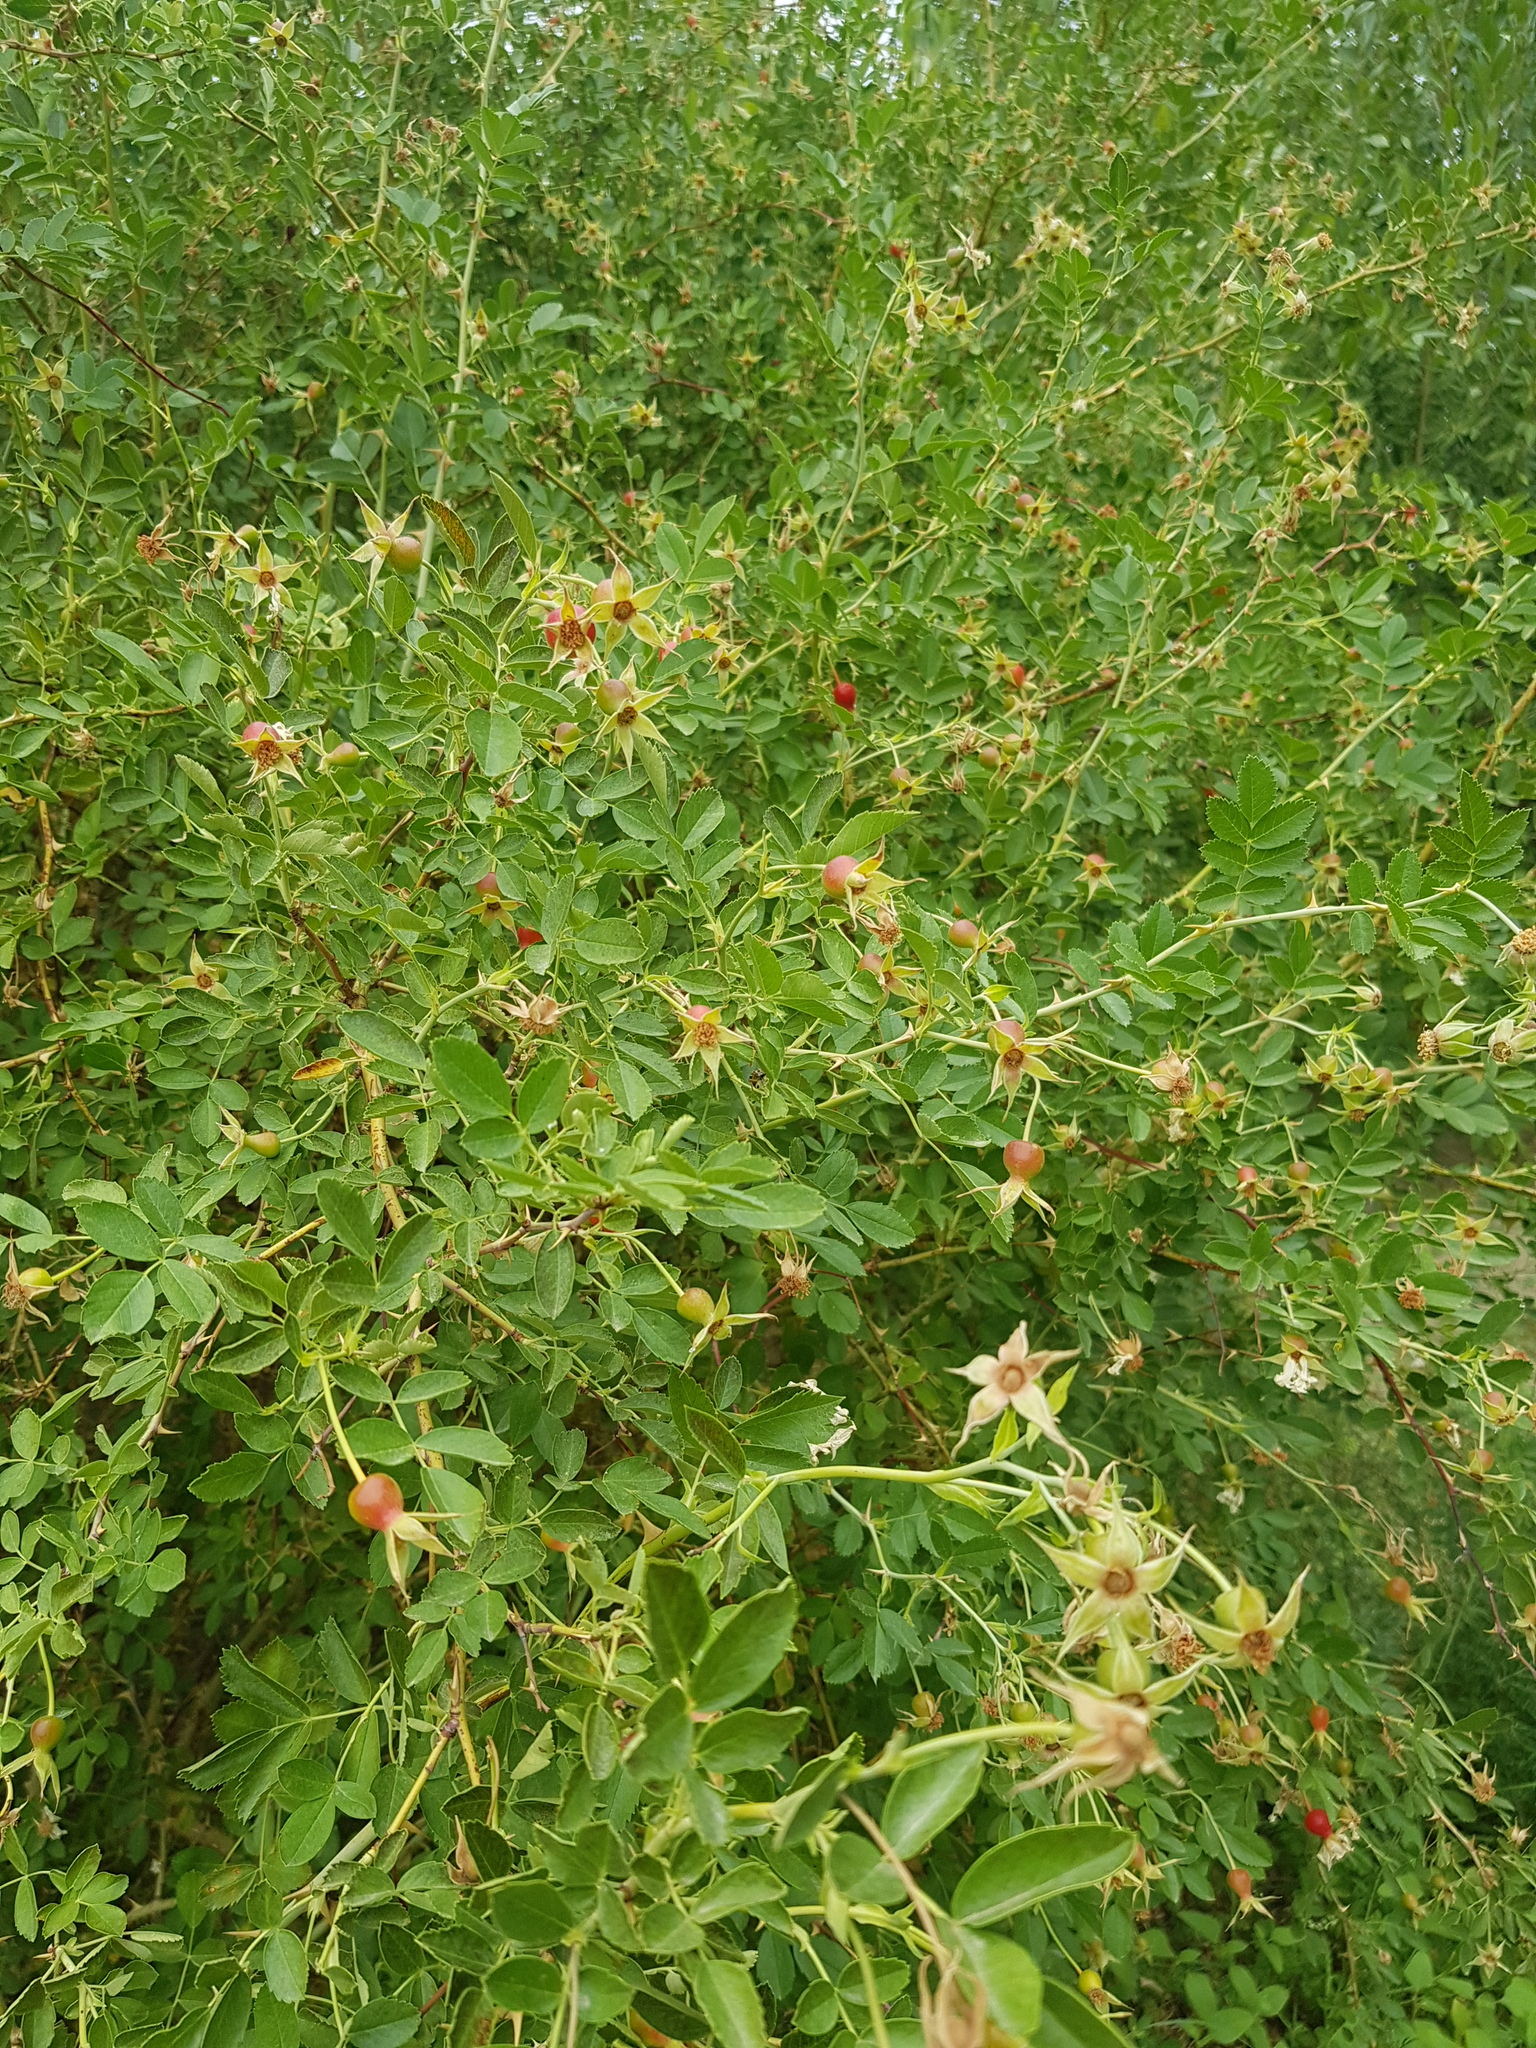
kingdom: Plantae
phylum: Tracheophyta
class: Magnoliopsida
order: Rosales
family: Rosaceae
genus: Rosa
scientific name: Rosa laxa
